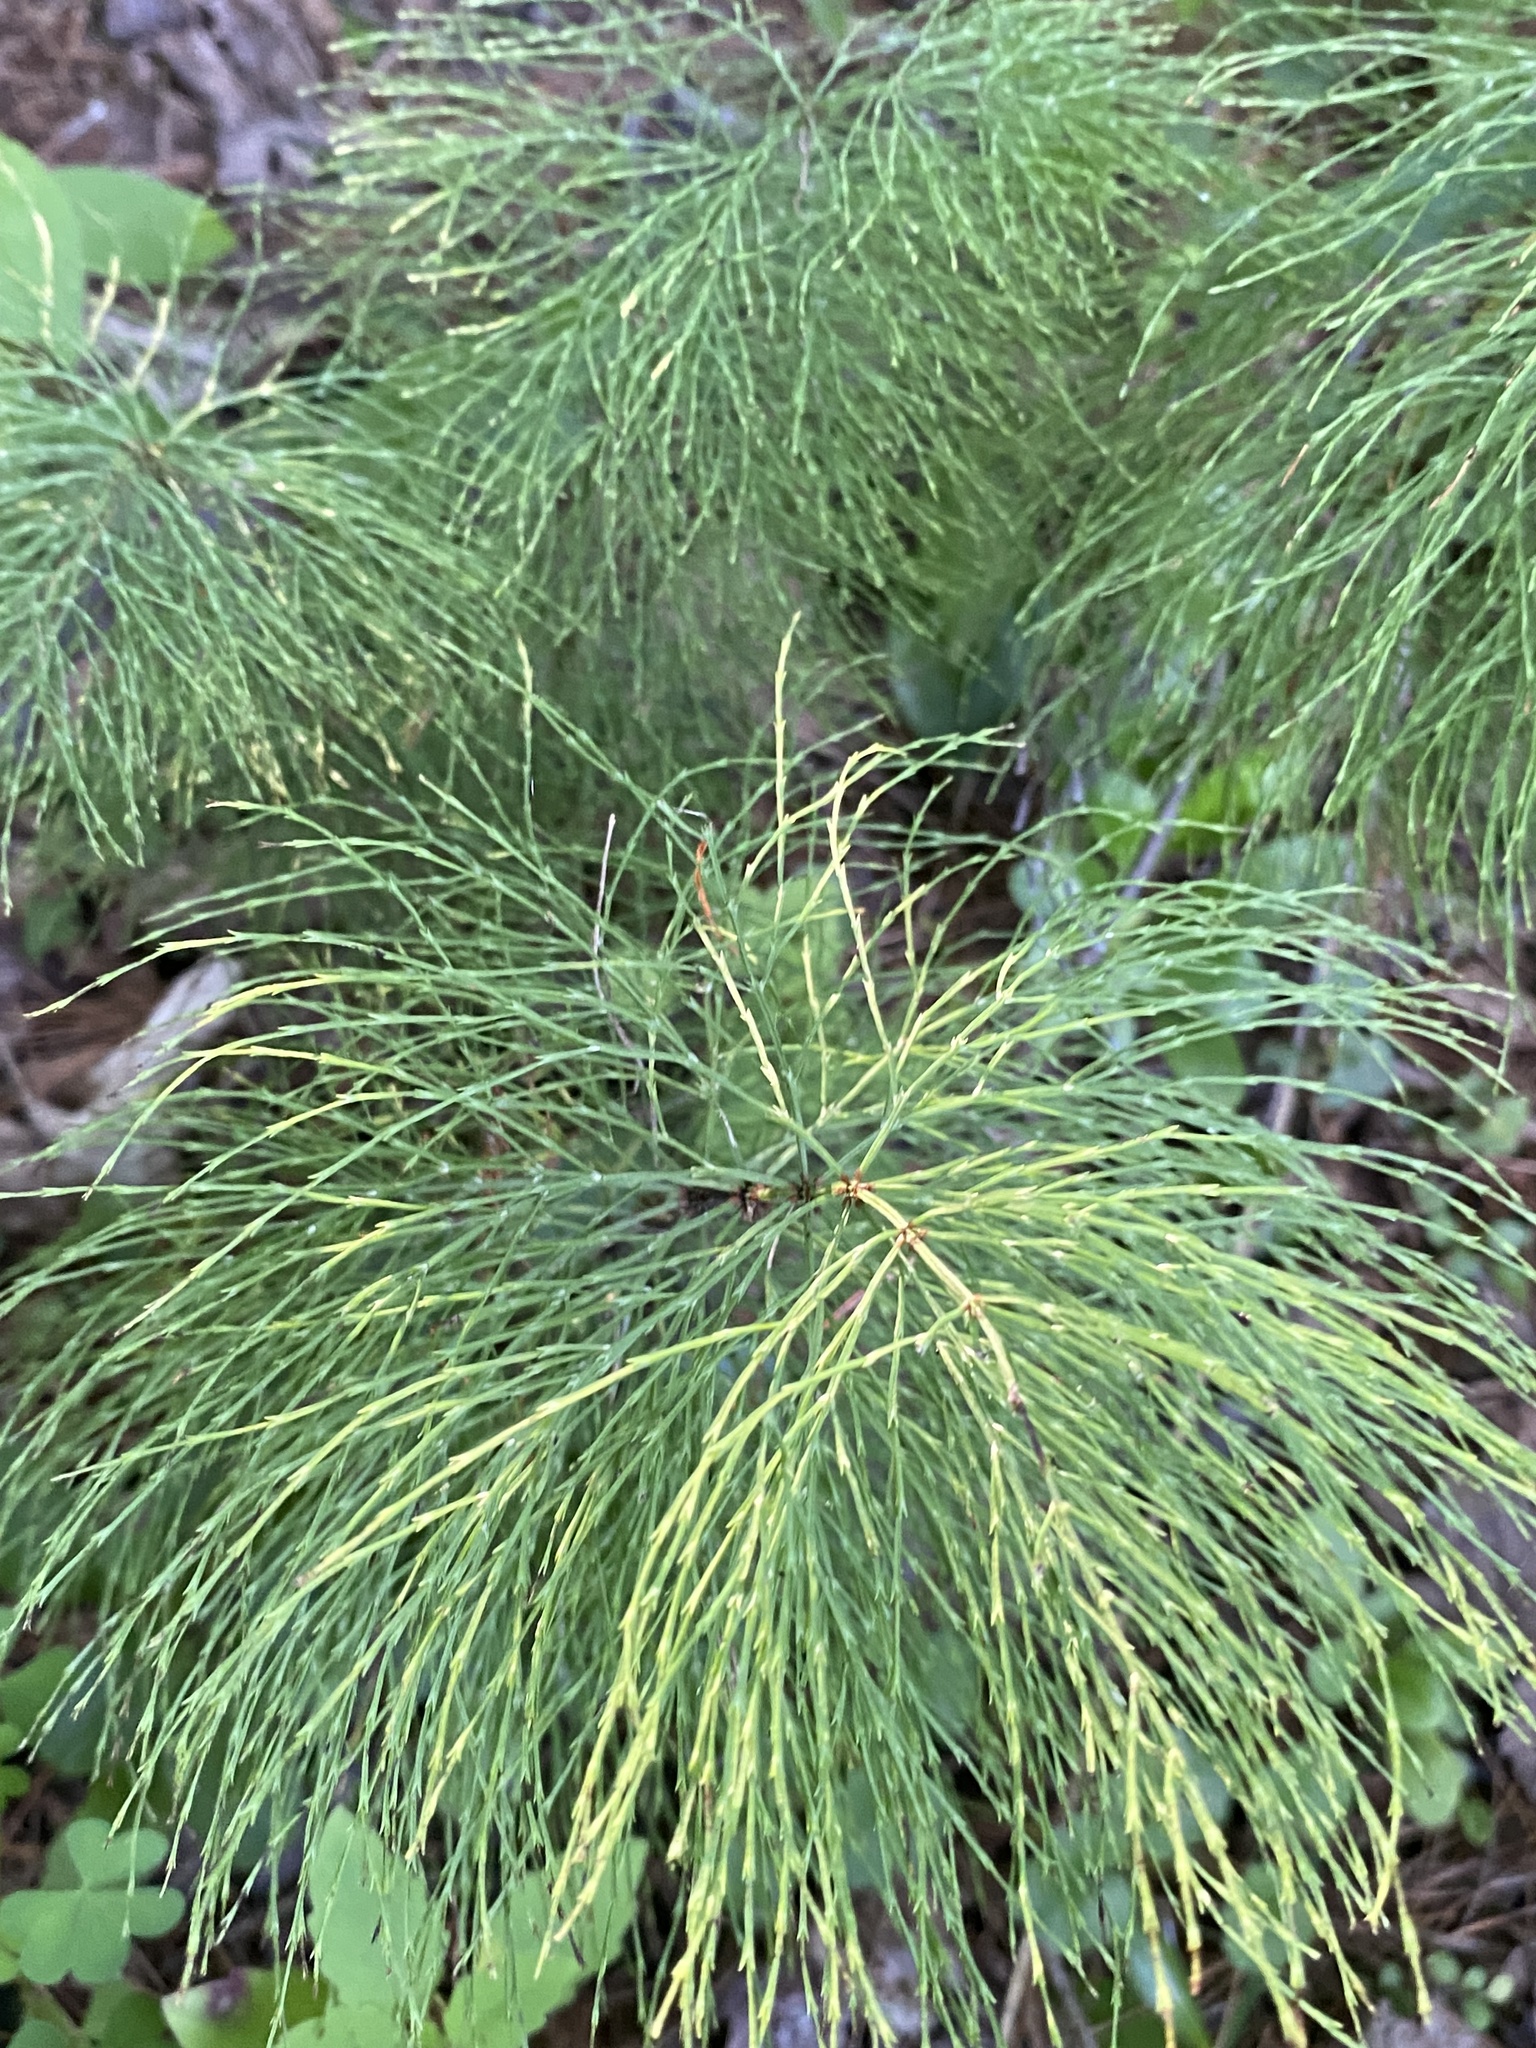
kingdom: Plantae
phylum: Tracheophyta
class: Polypodiopsida
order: Equisetales
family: Equisetaceae
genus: Equisetum
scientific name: Equisetum sylvaticum
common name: Wood horsetail
